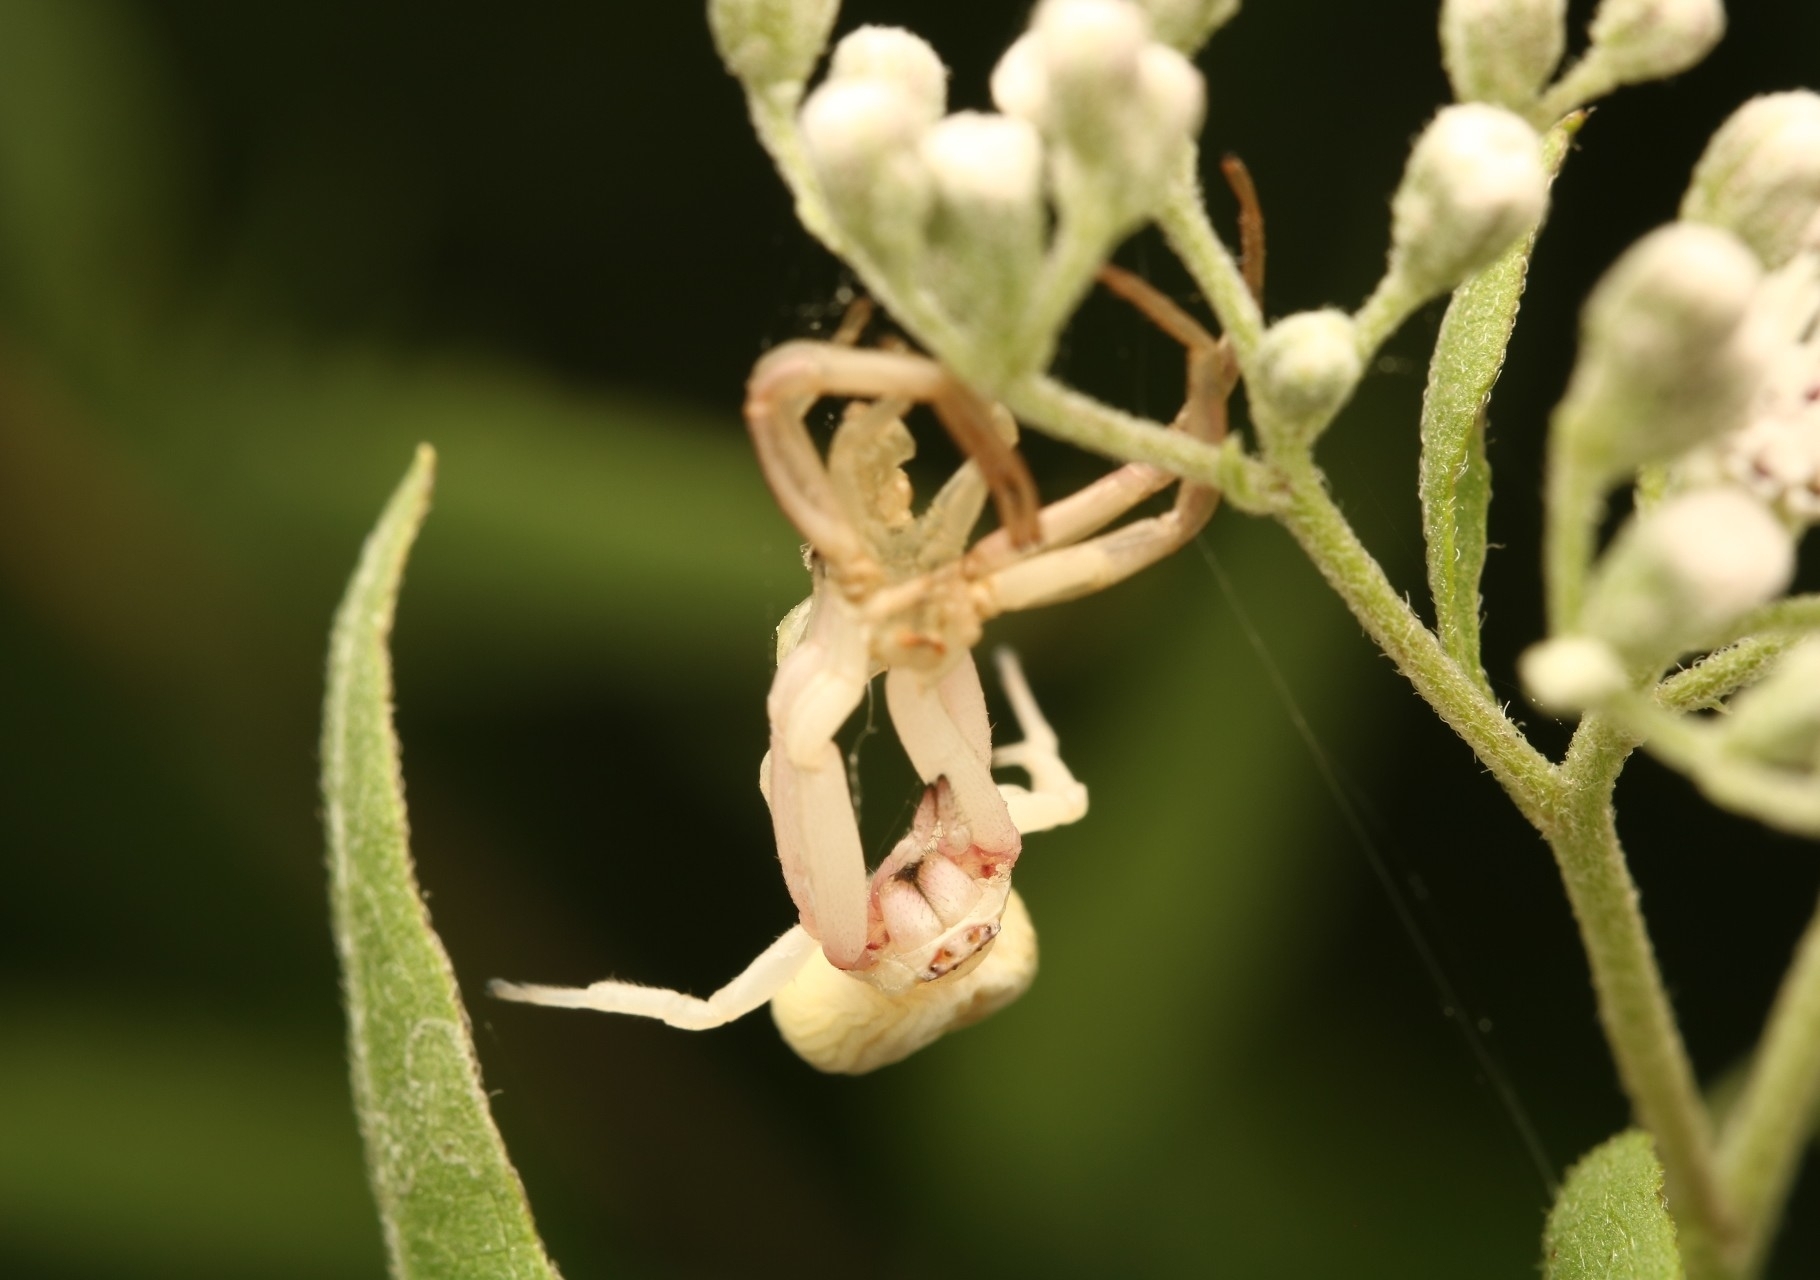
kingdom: Animalia
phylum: Arthropoda
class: Arachnida
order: Araneae
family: Thomisidae
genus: Misumenoides
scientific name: Misumenoides formosipes
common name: White-banded crab spider
